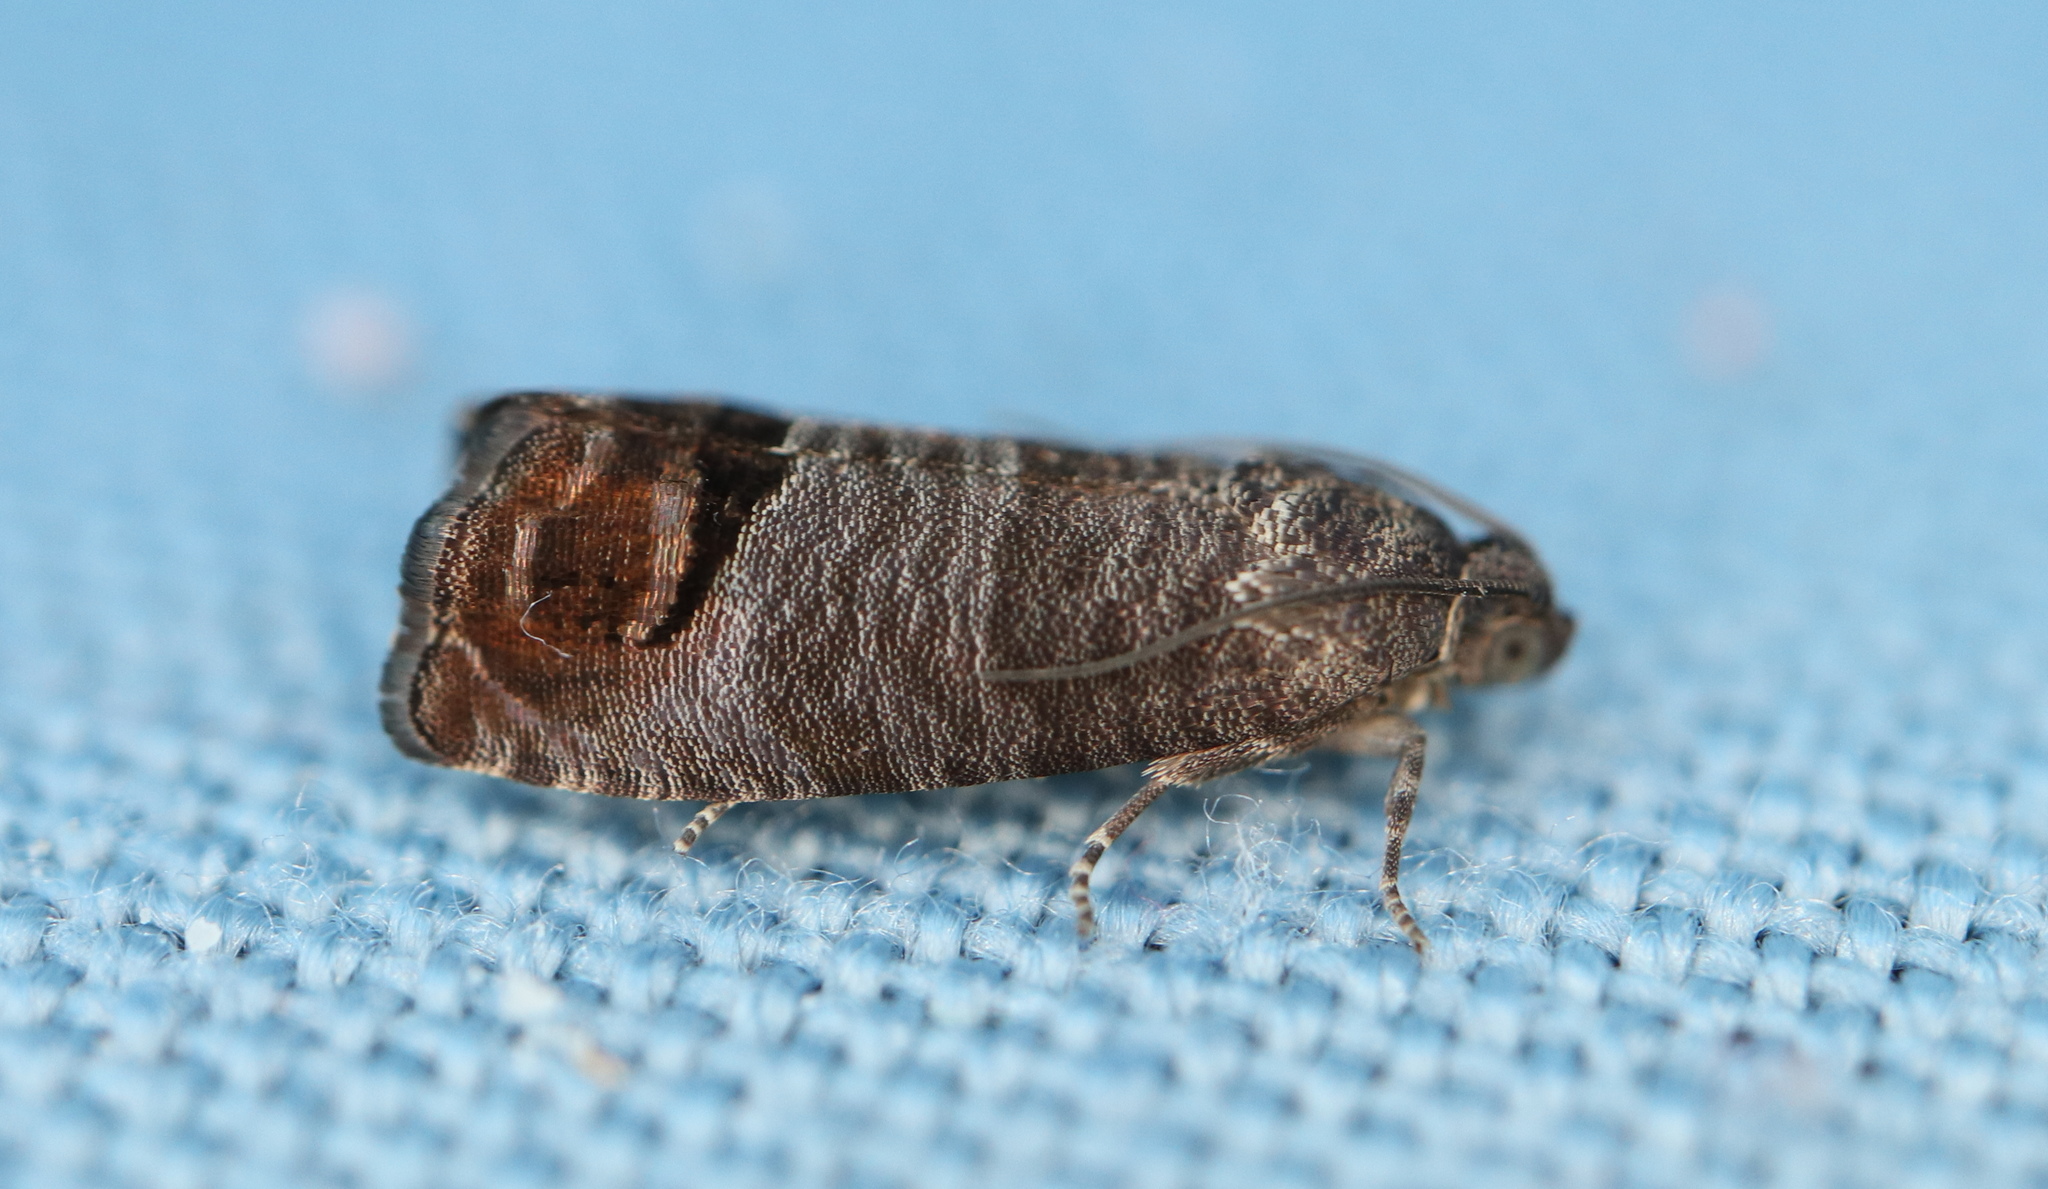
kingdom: Animalia
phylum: Arthropoda
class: Insecta
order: Lepidoptera
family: Tortricidae
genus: Cydia
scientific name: Cydia pomonella
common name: Codling moth
